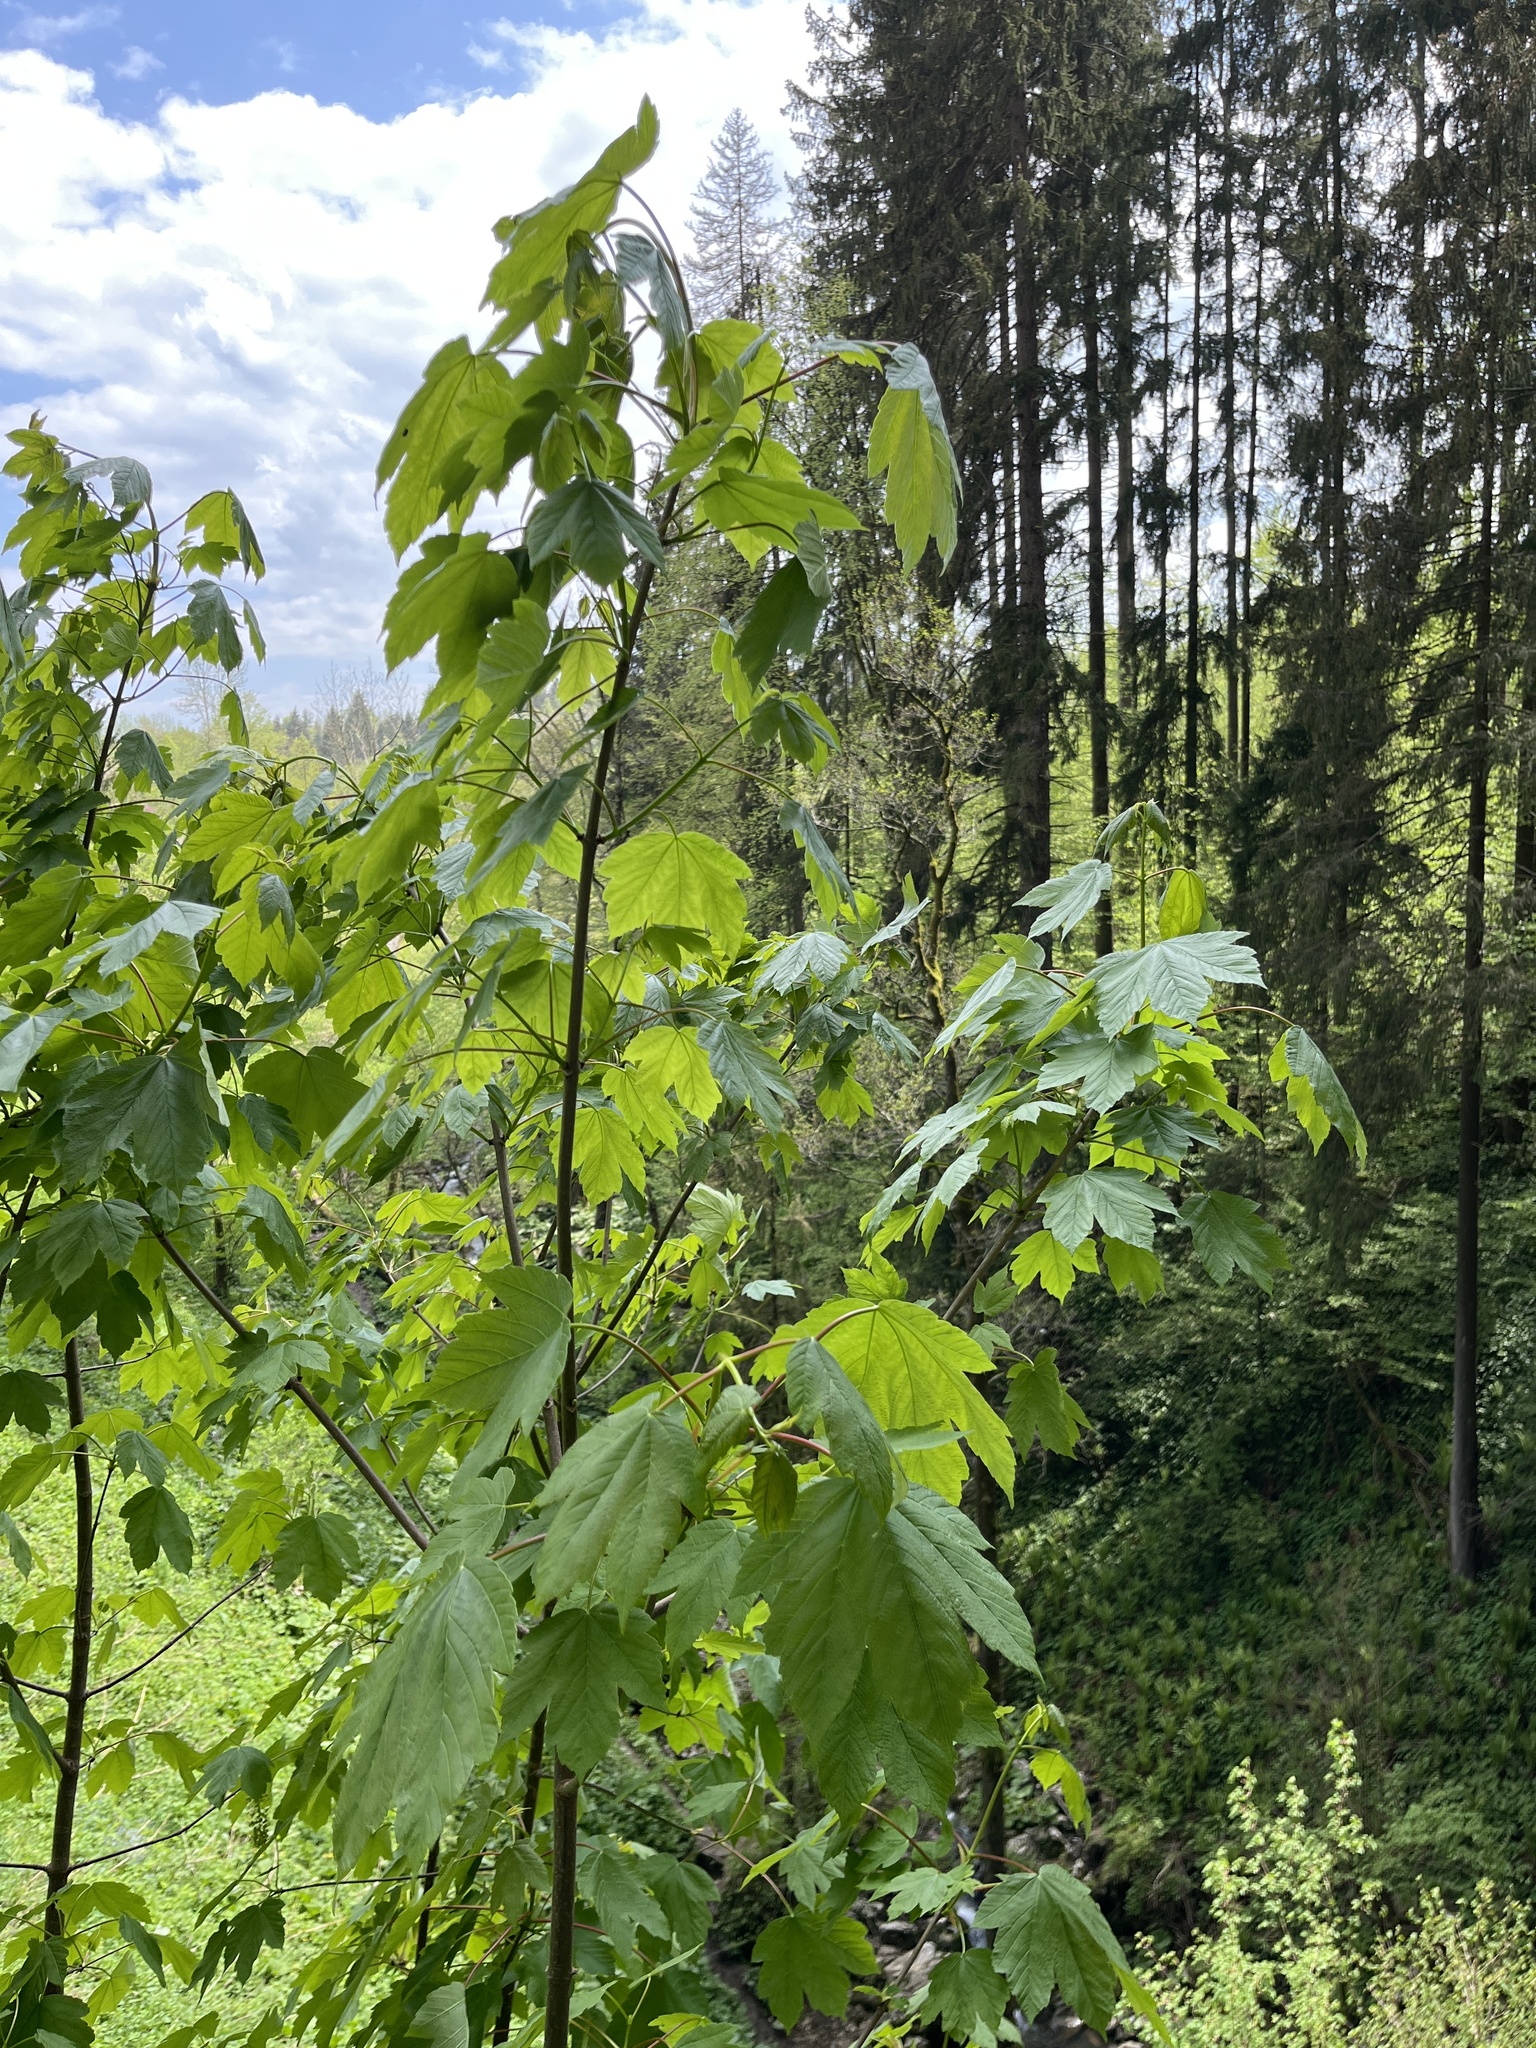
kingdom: Plantae
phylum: Tracheophyta
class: Magnoliopsida
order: Sapindales
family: Sapindaceae
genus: Acer
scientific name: Acer pseudoplatanus
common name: Sycamore
